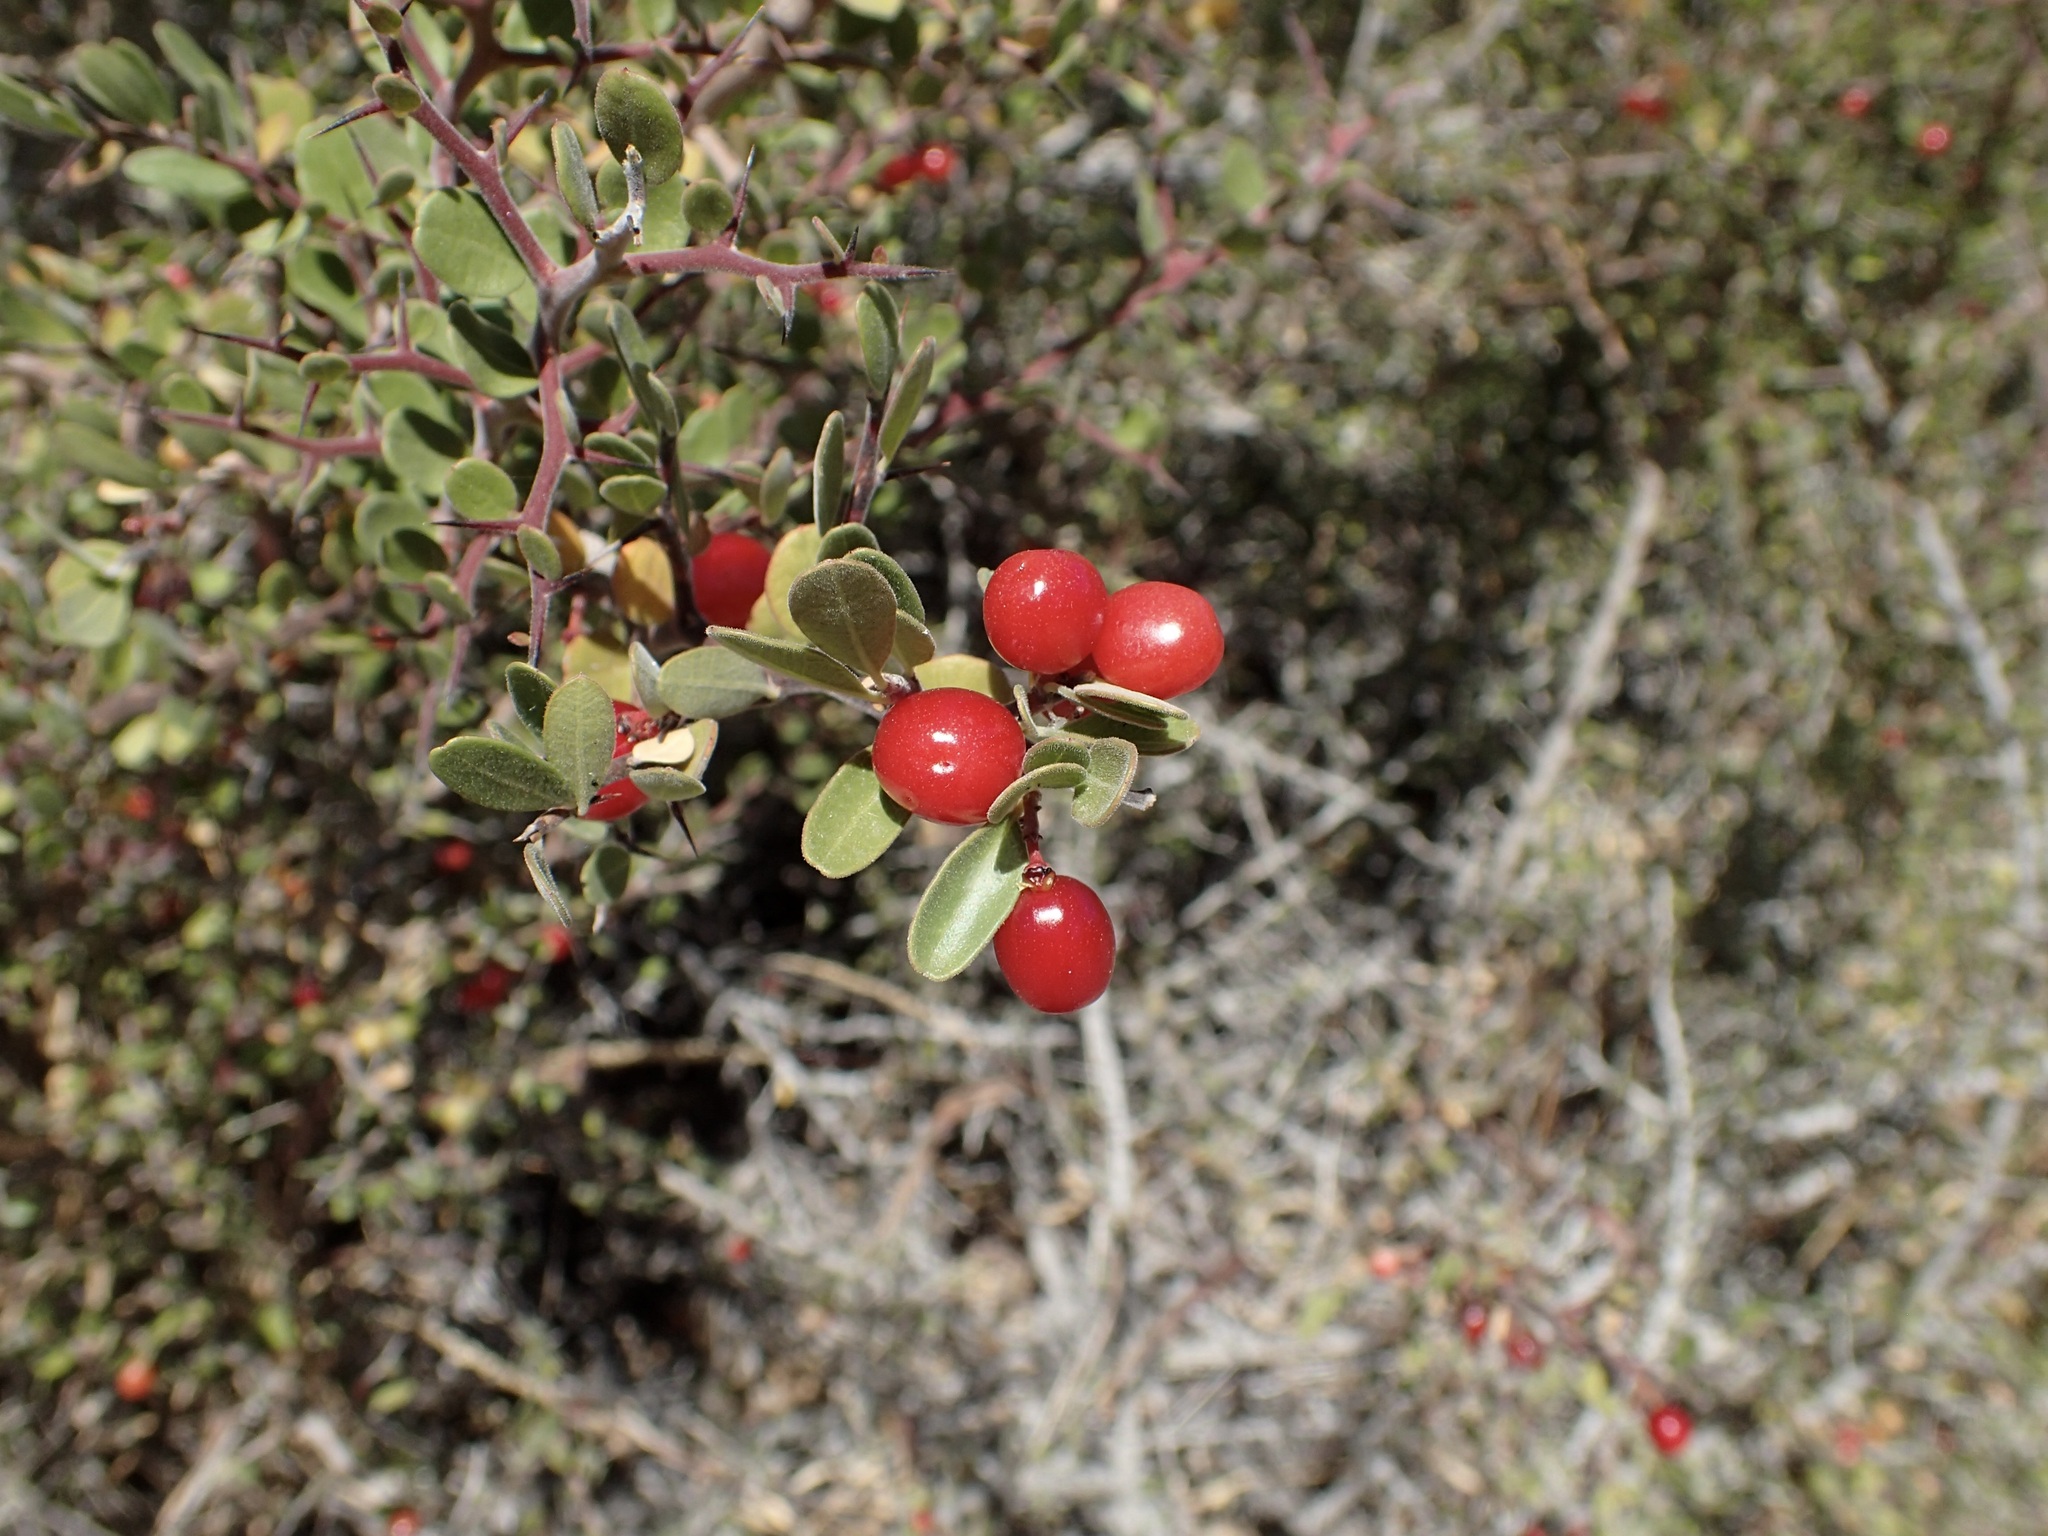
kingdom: Plantae
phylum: Tracheophyta
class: Magnoliopsida
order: Sapindales
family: Simaroubaceae
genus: Castela
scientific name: Castela peninsularis
